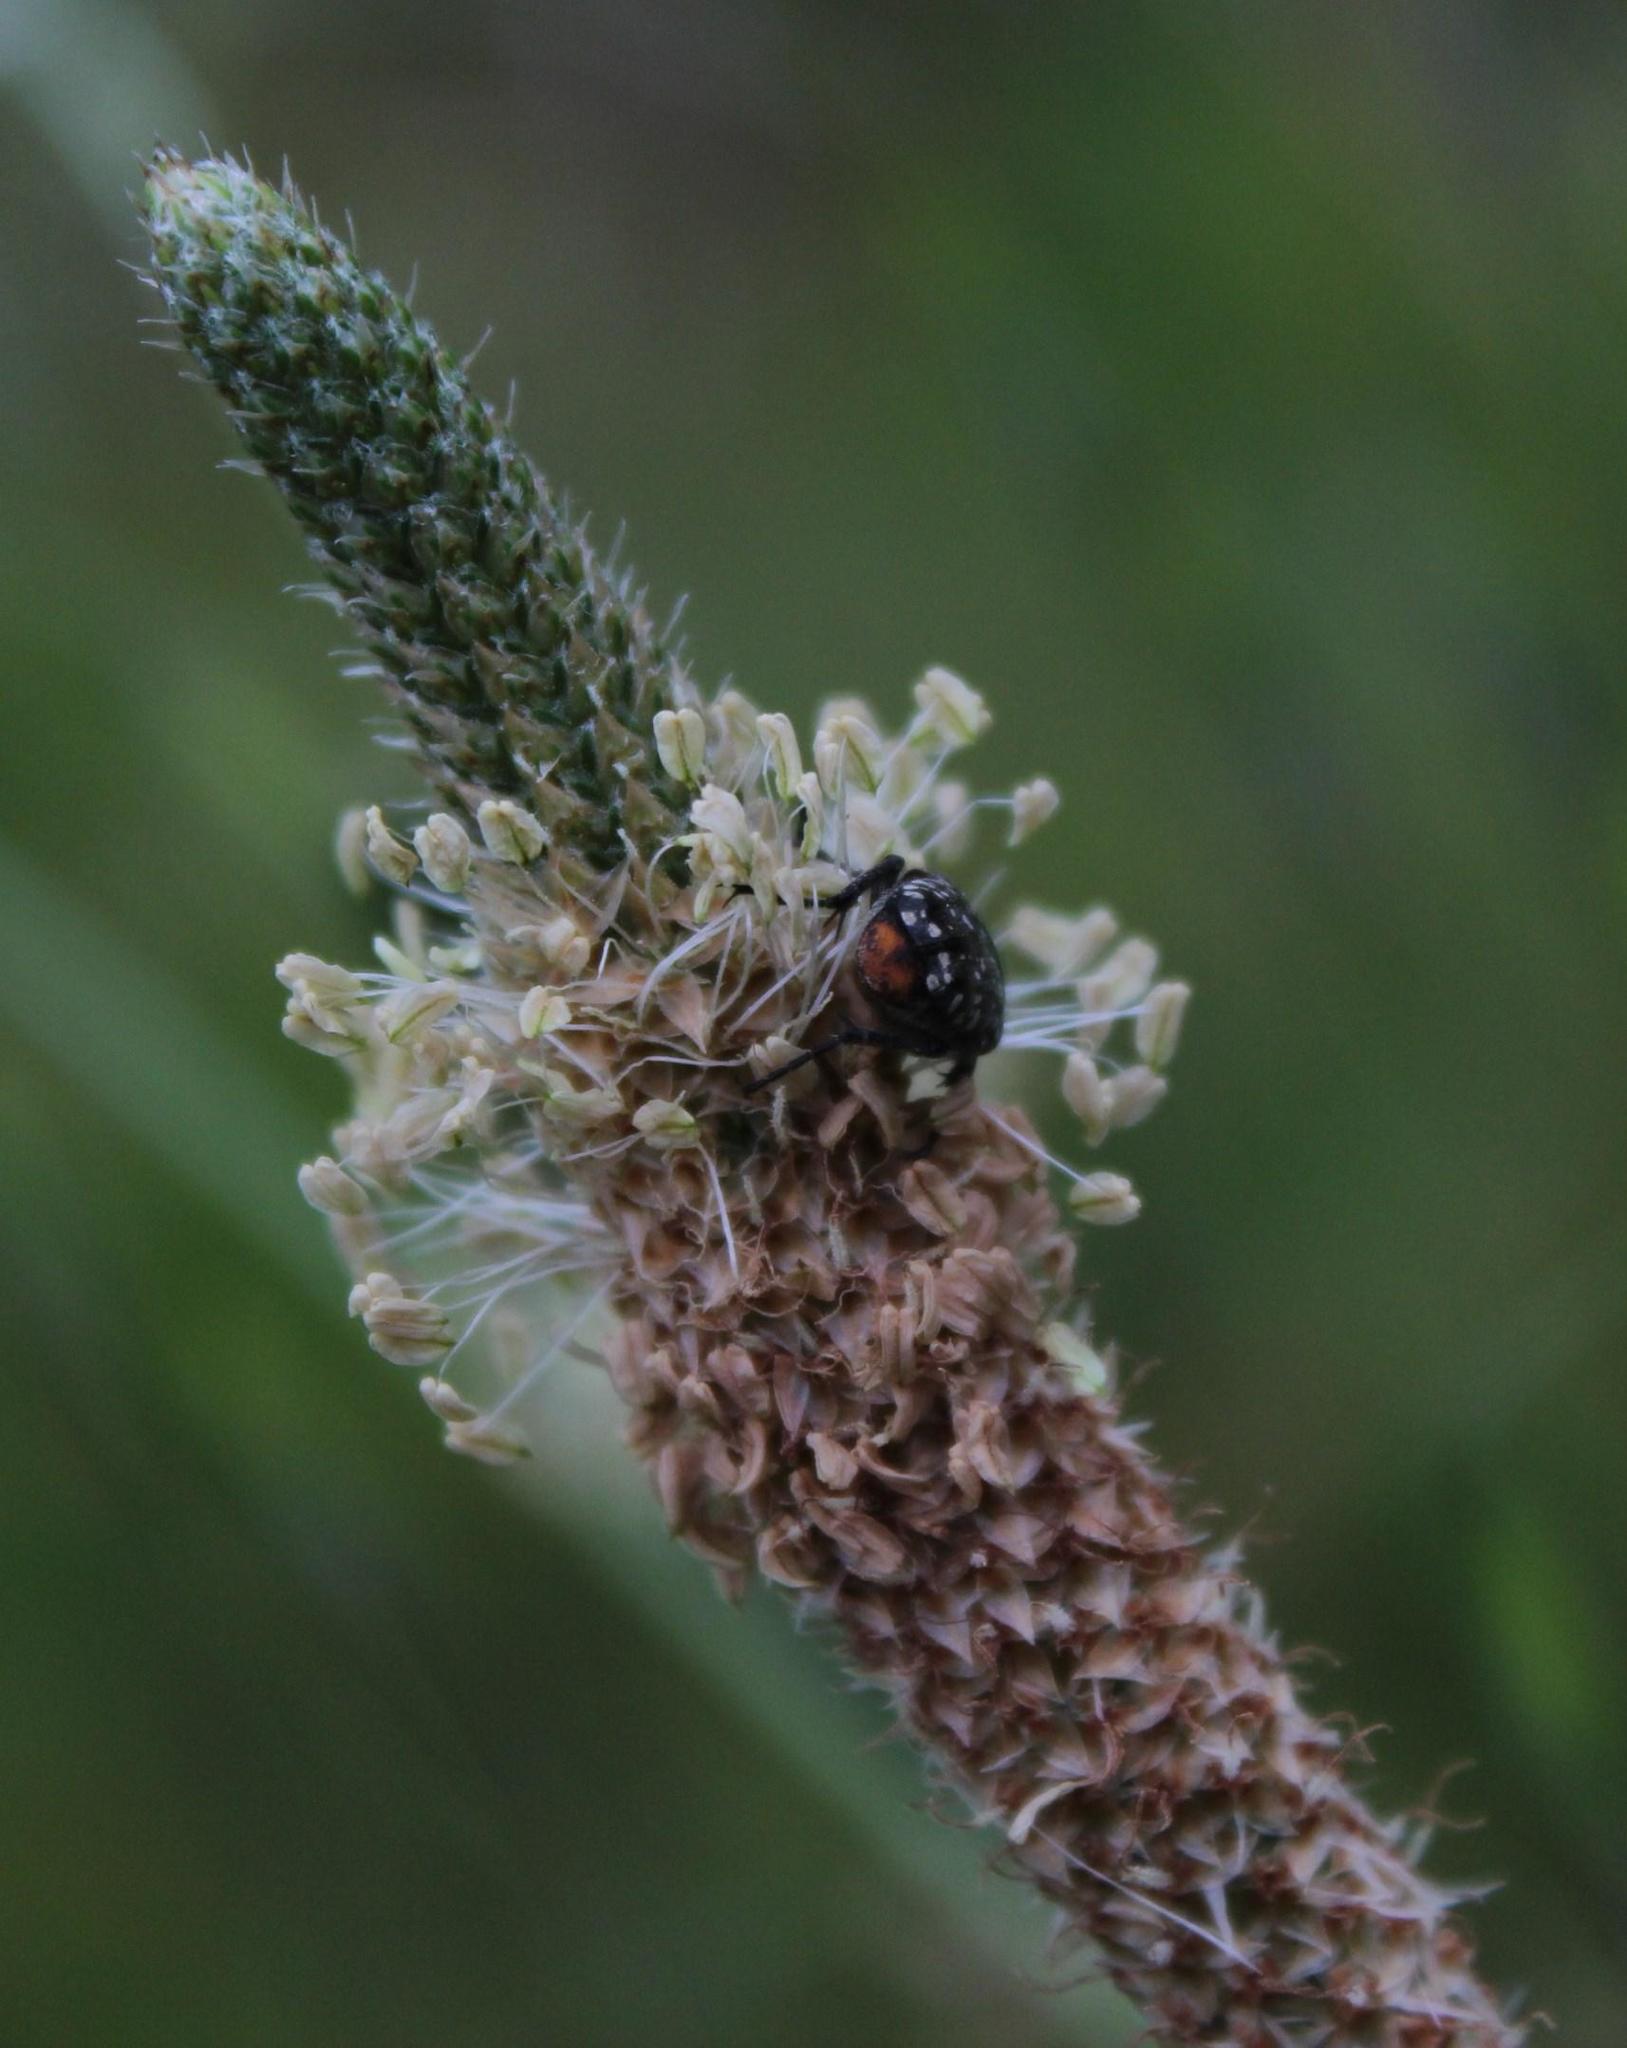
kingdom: Plantae
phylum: Tracheophyta
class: Magnoliopsida
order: Lamiales
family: Plantaginaceae
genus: Plantago
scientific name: Plantago lanceolata
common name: Ribwort plantain
